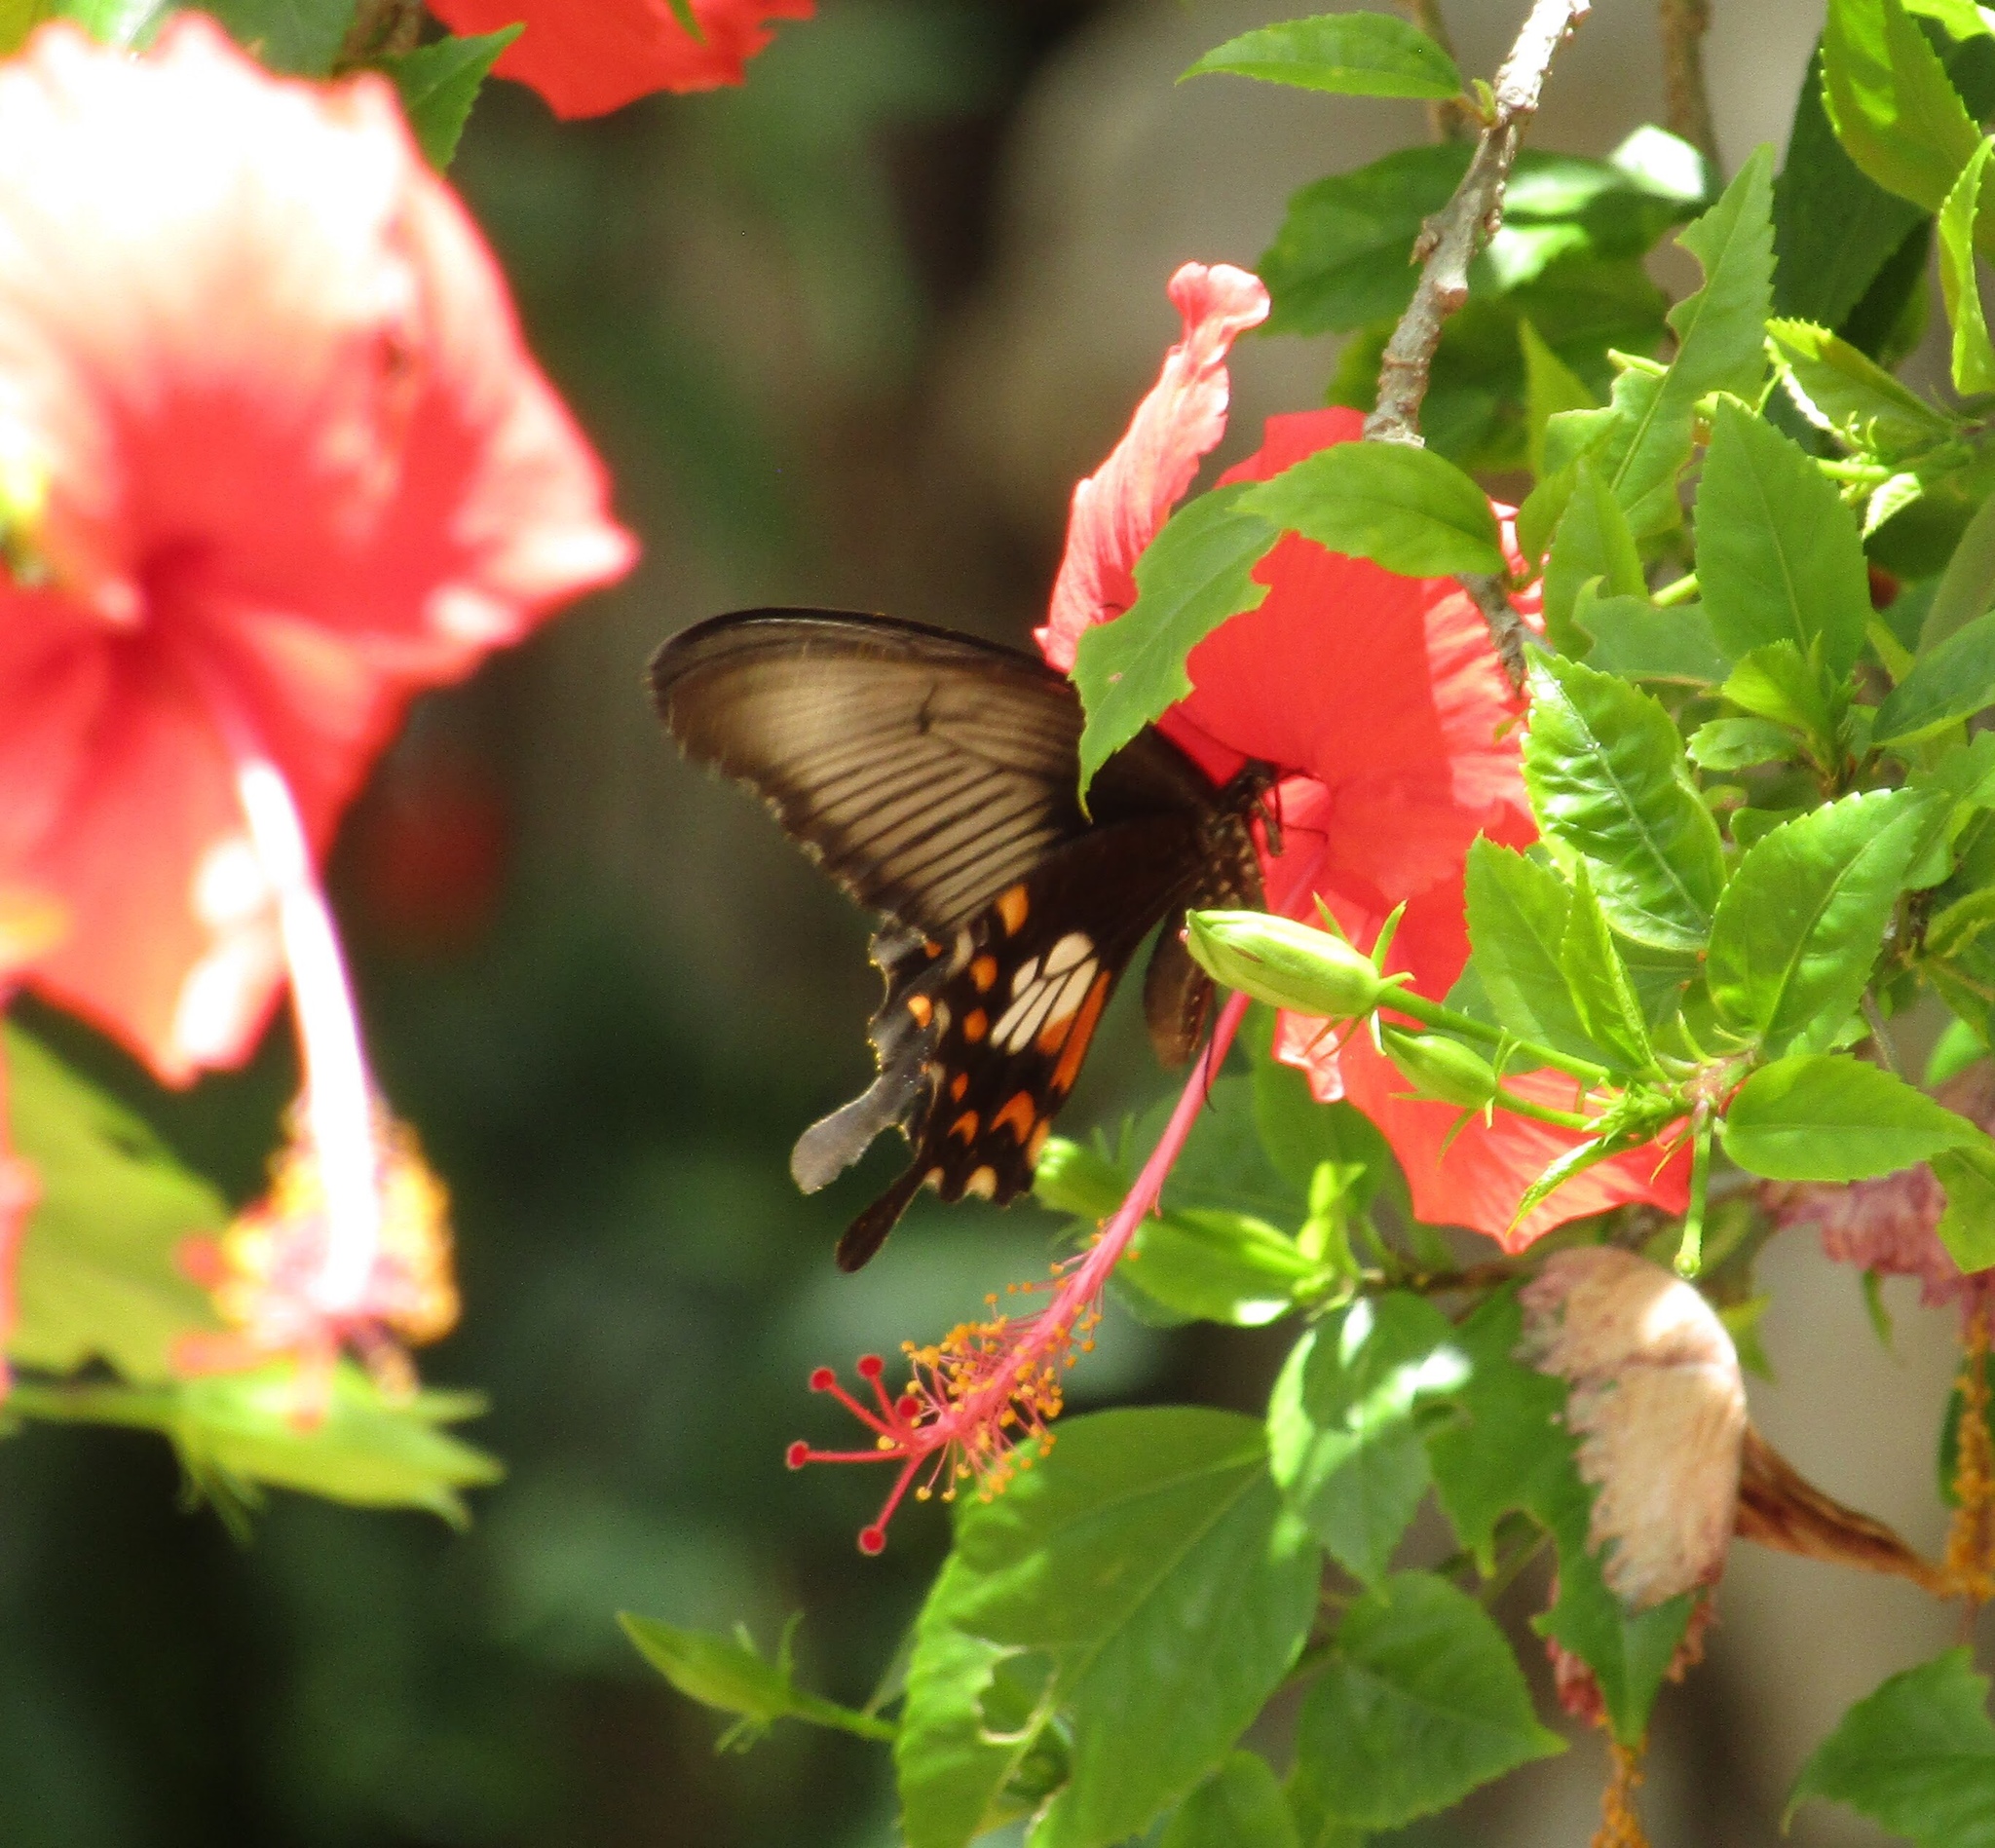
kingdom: Animalia
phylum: Arthropoda
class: Insecta
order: Lepidoptera
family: Papilionidae
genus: Papilio
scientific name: Papilio polytes
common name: Common mormon
